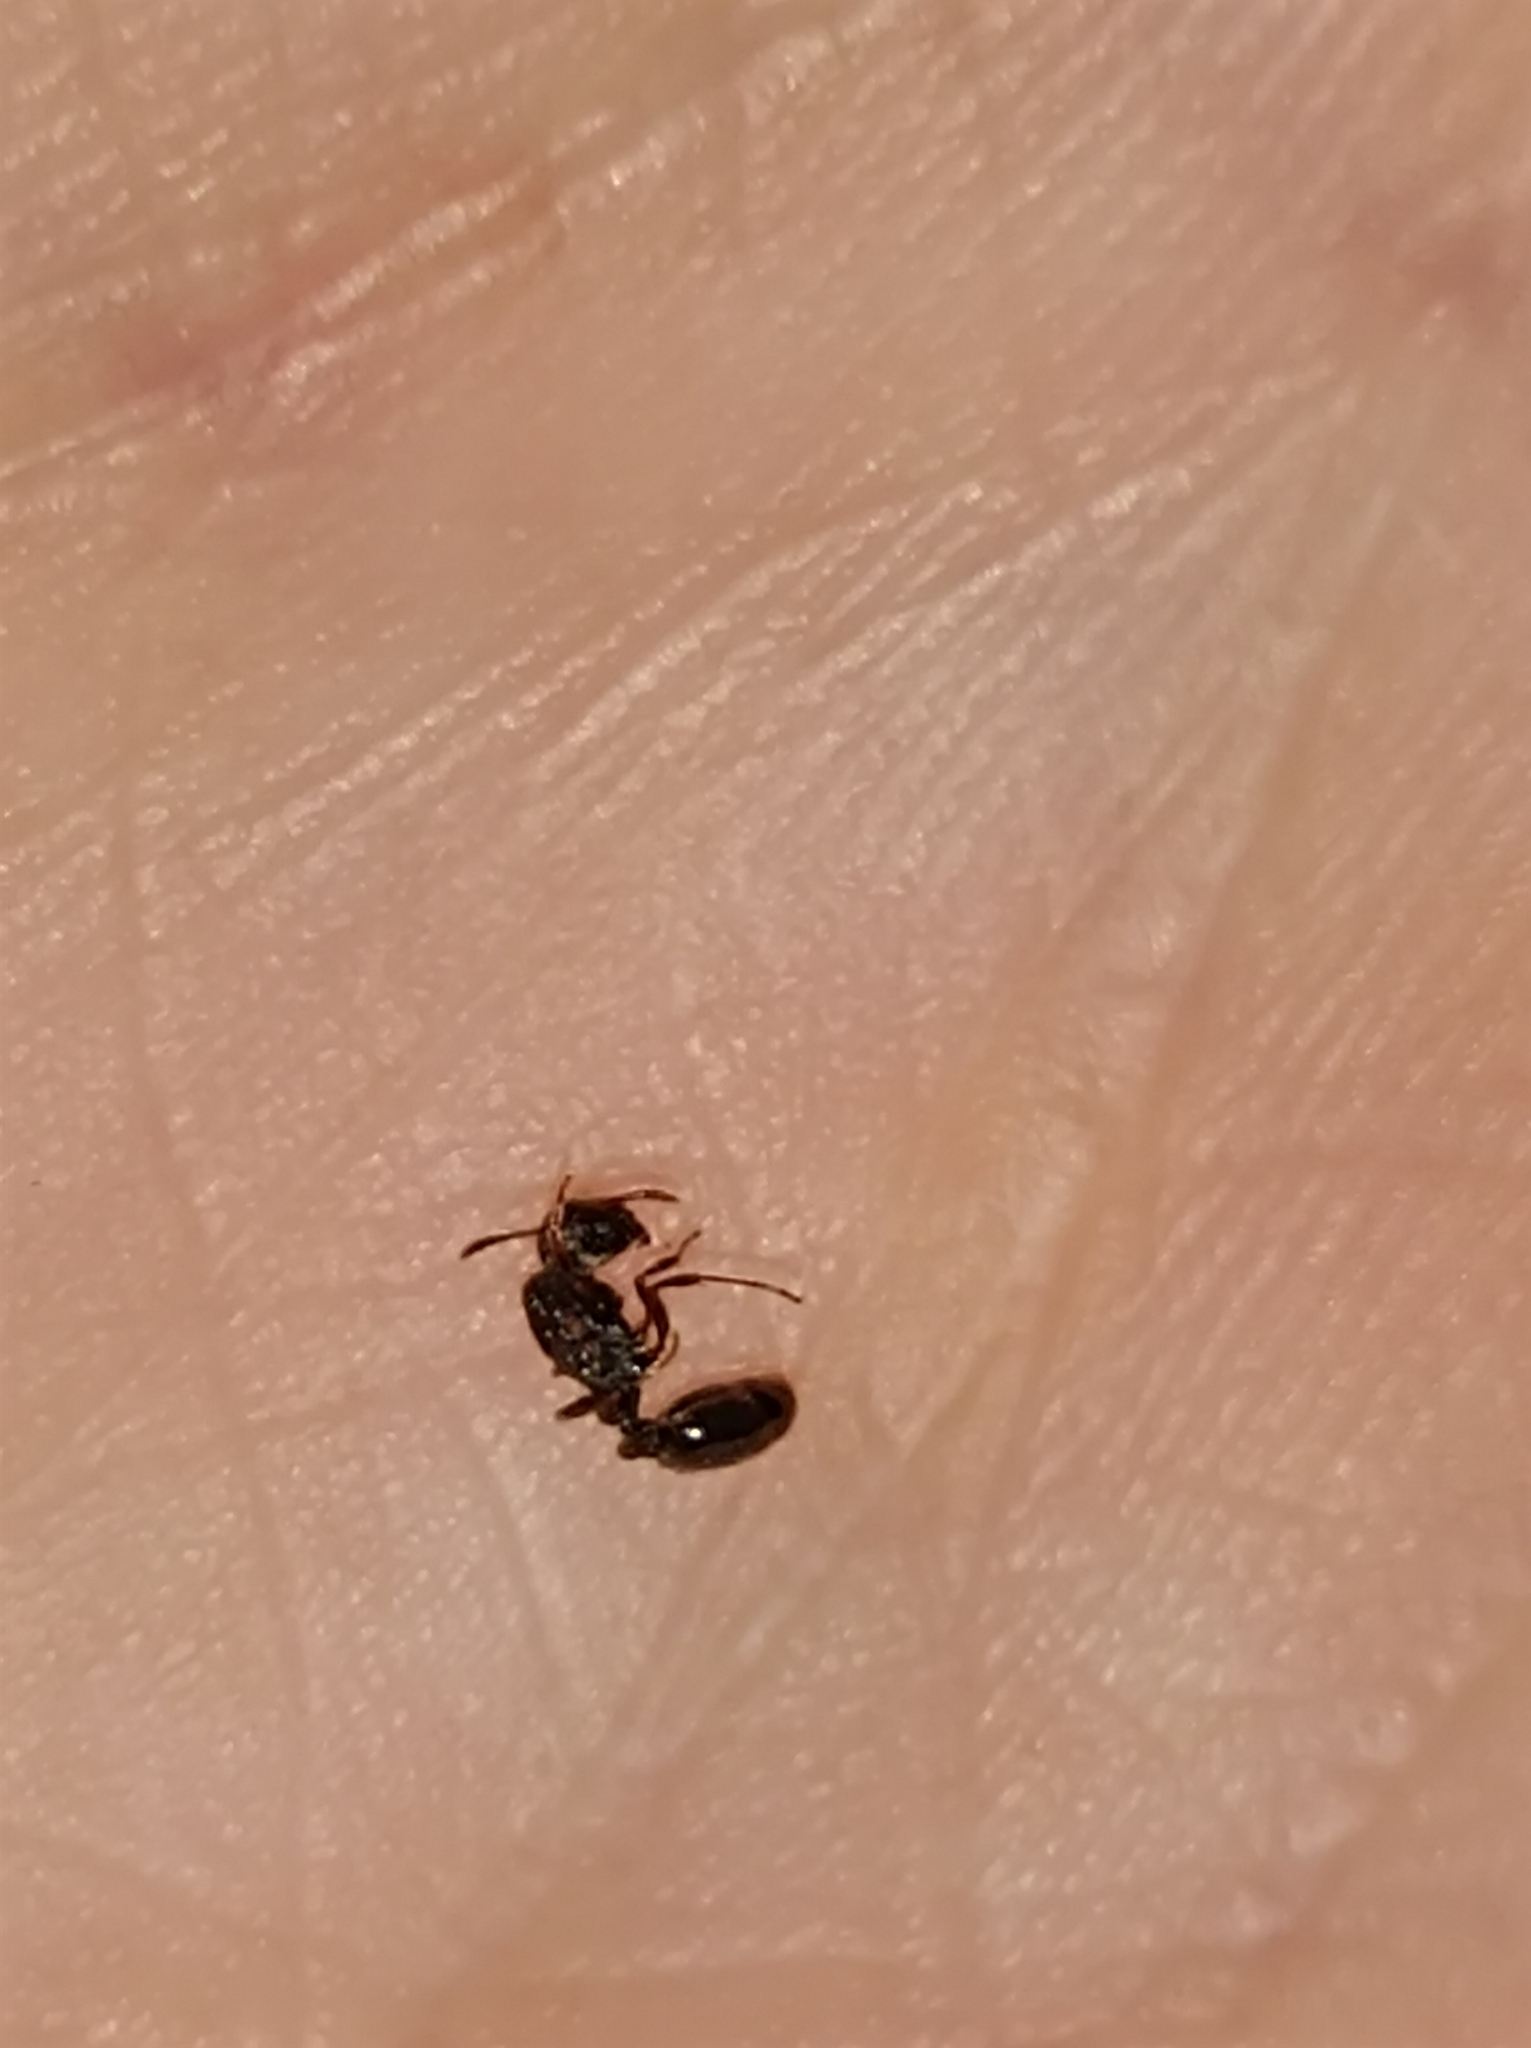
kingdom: Animalia
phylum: Arthropoda
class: Insecta
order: Hymenoptera
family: Formicidae
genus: Tetramorium
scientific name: Tetramorium forte
